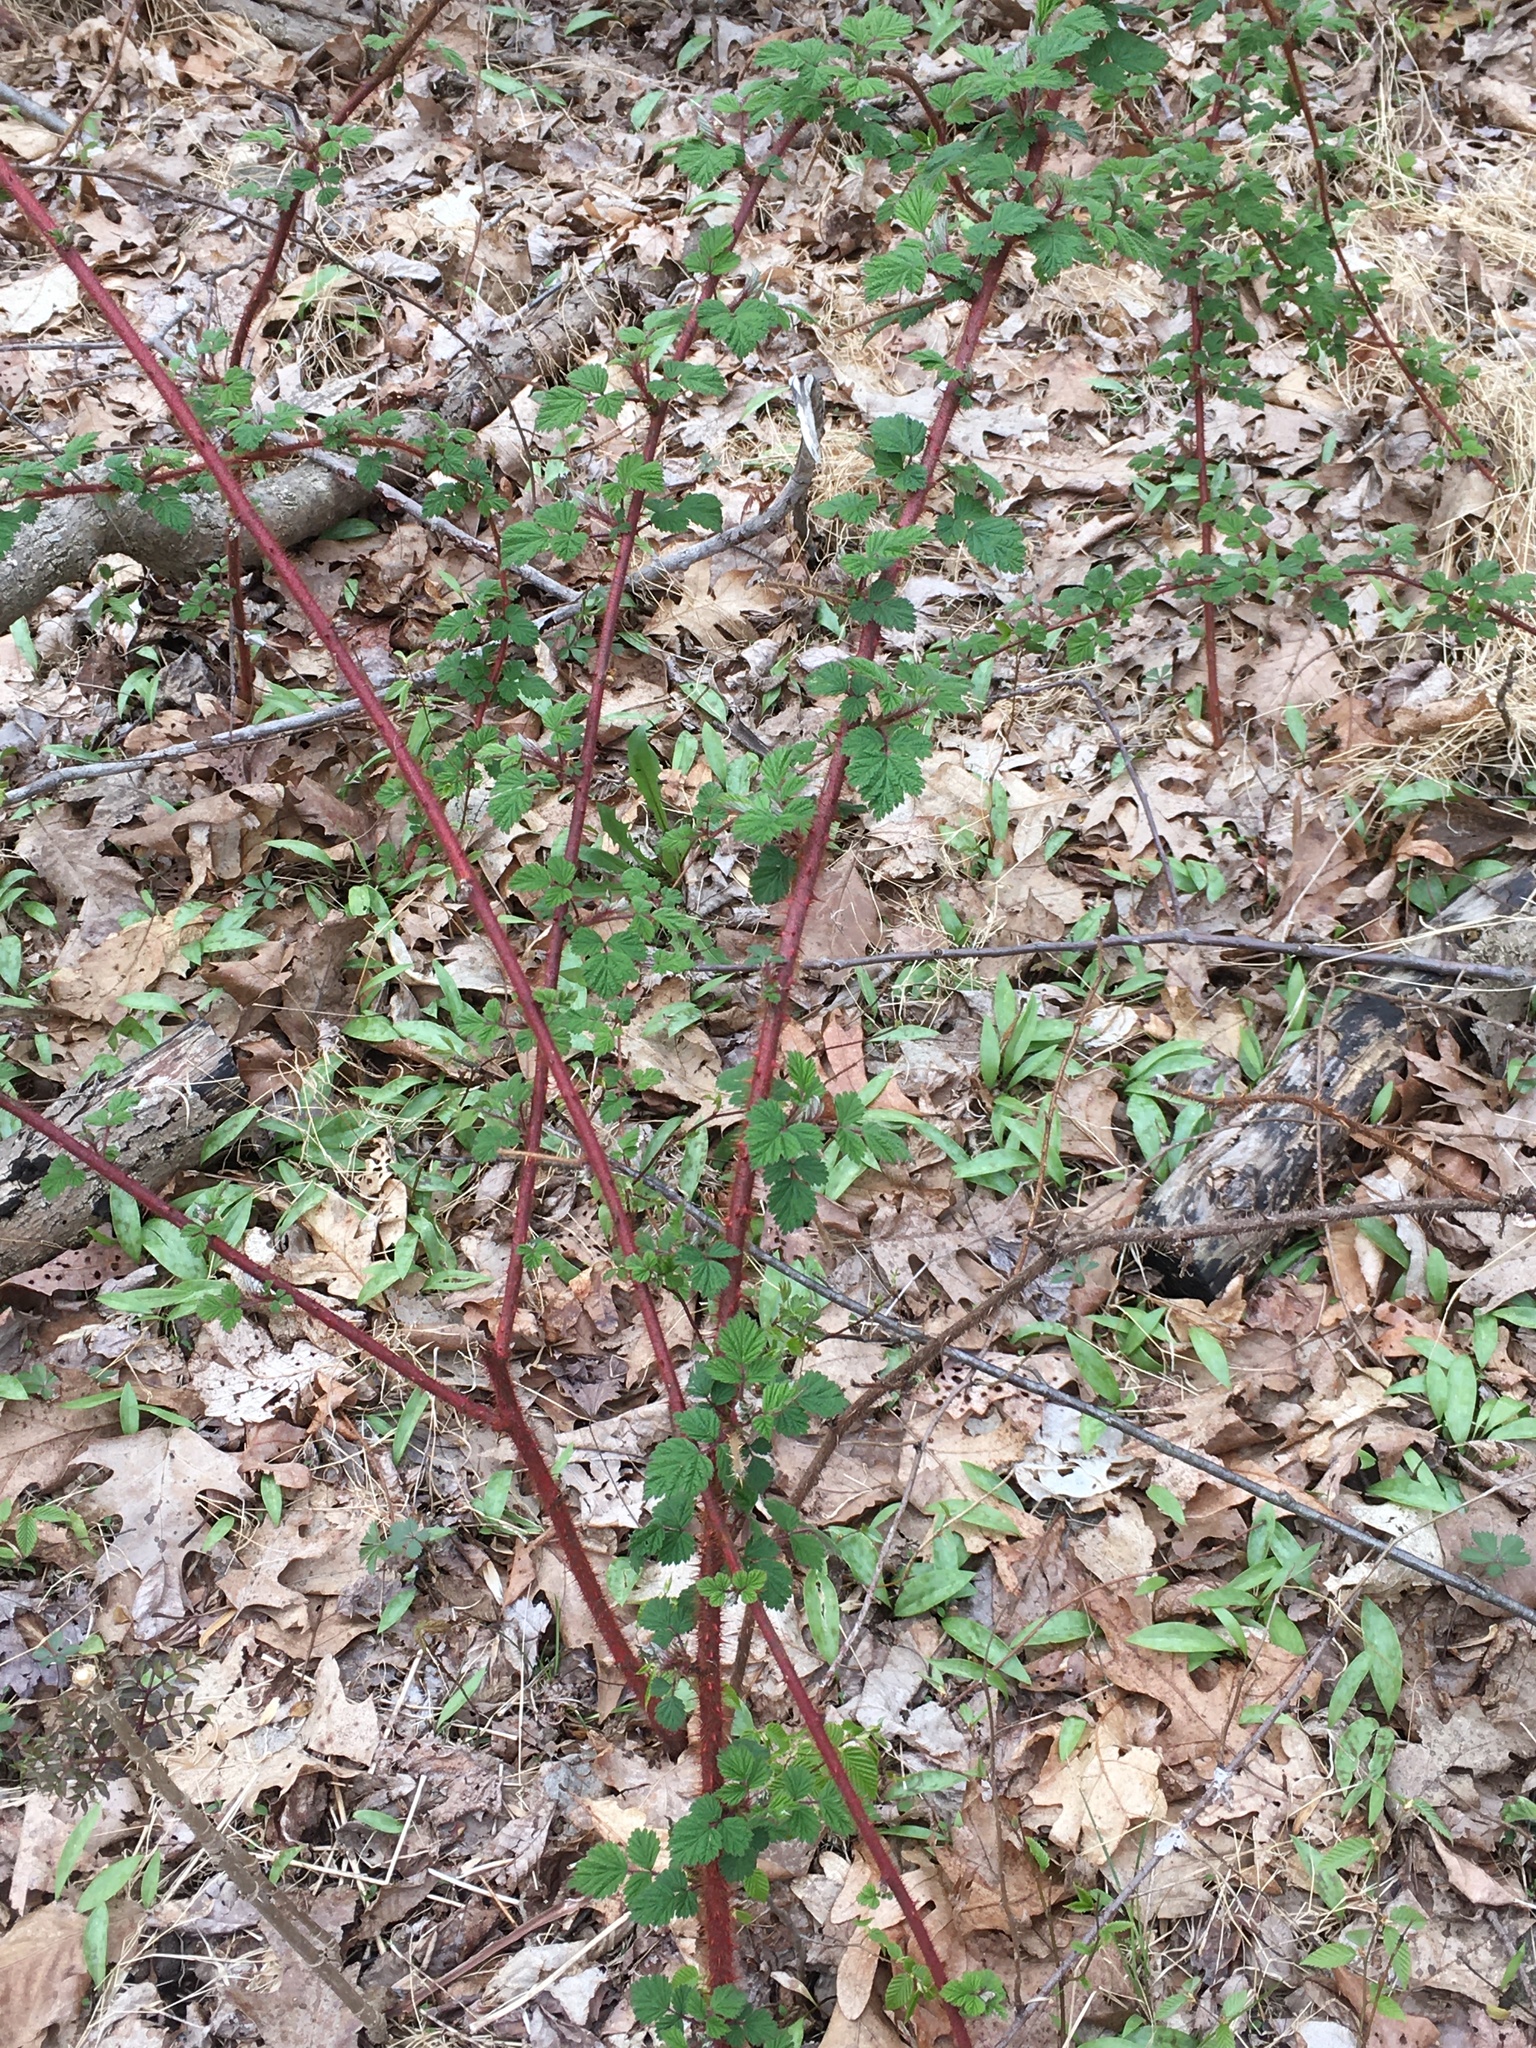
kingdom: Plantae
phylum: Tracheophyta
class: Magnoliopsida
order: Rosales
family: Rosaceae
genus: Rubus
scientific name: Rubus phoenicolasius
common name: Japanese wineberry
